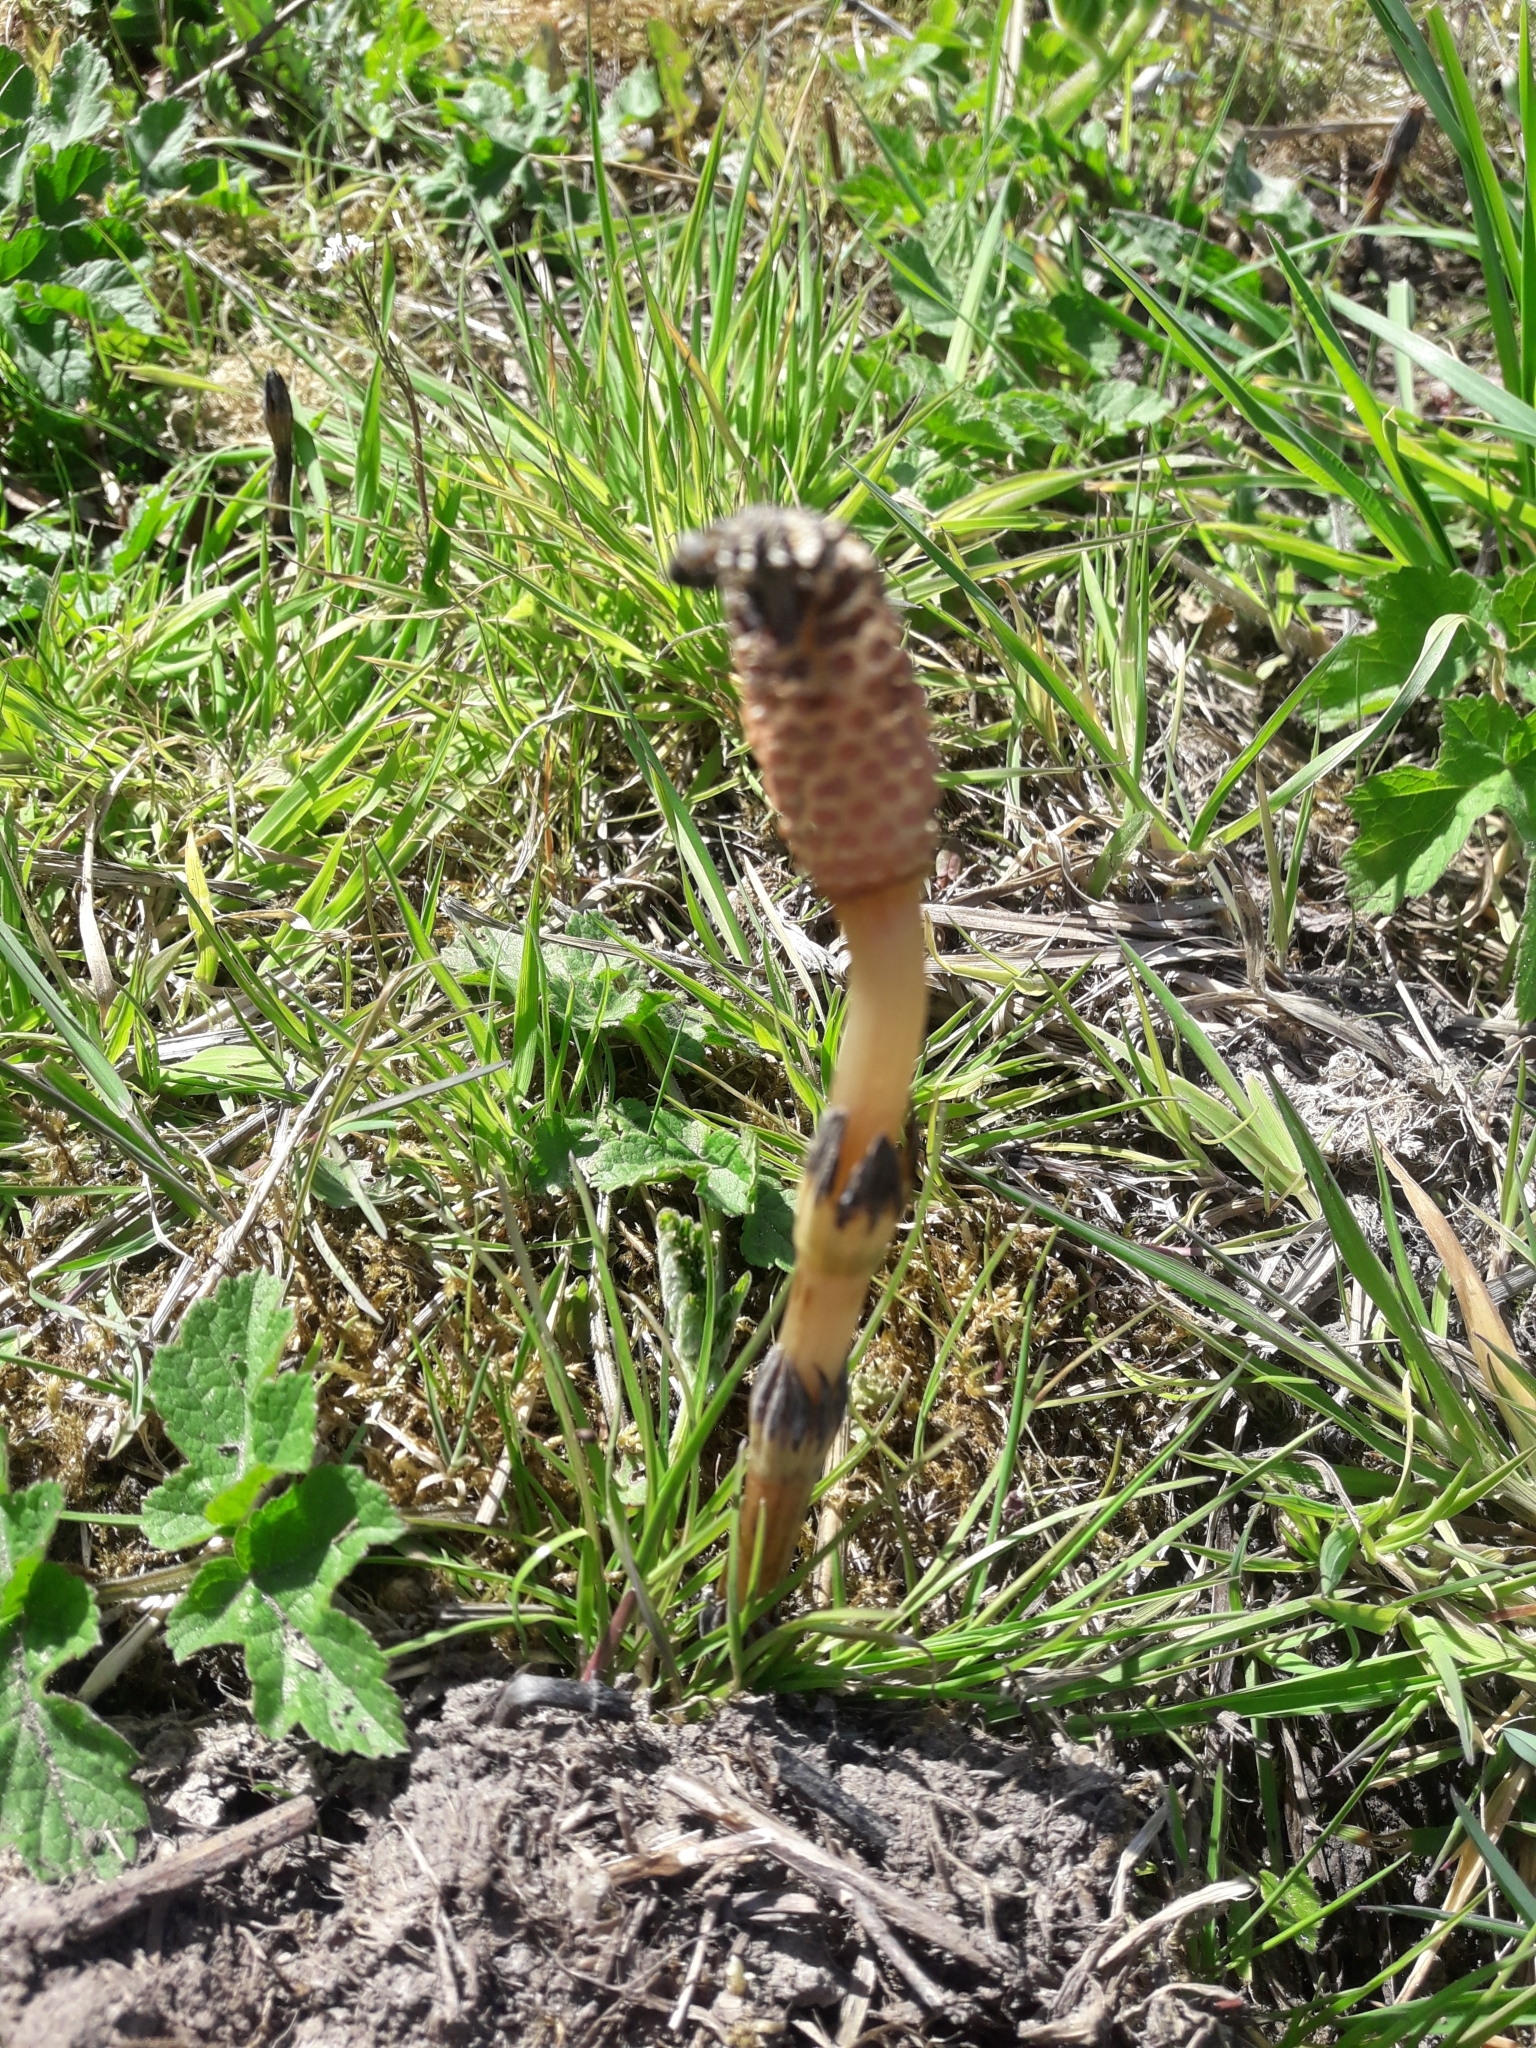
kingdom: Plantae
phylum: Tracheophyta
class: Polypodiopsida
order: Equisetales
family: Equisetaceae
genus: Equisetum
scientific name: Equisetum arvense
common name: Field horsetail
